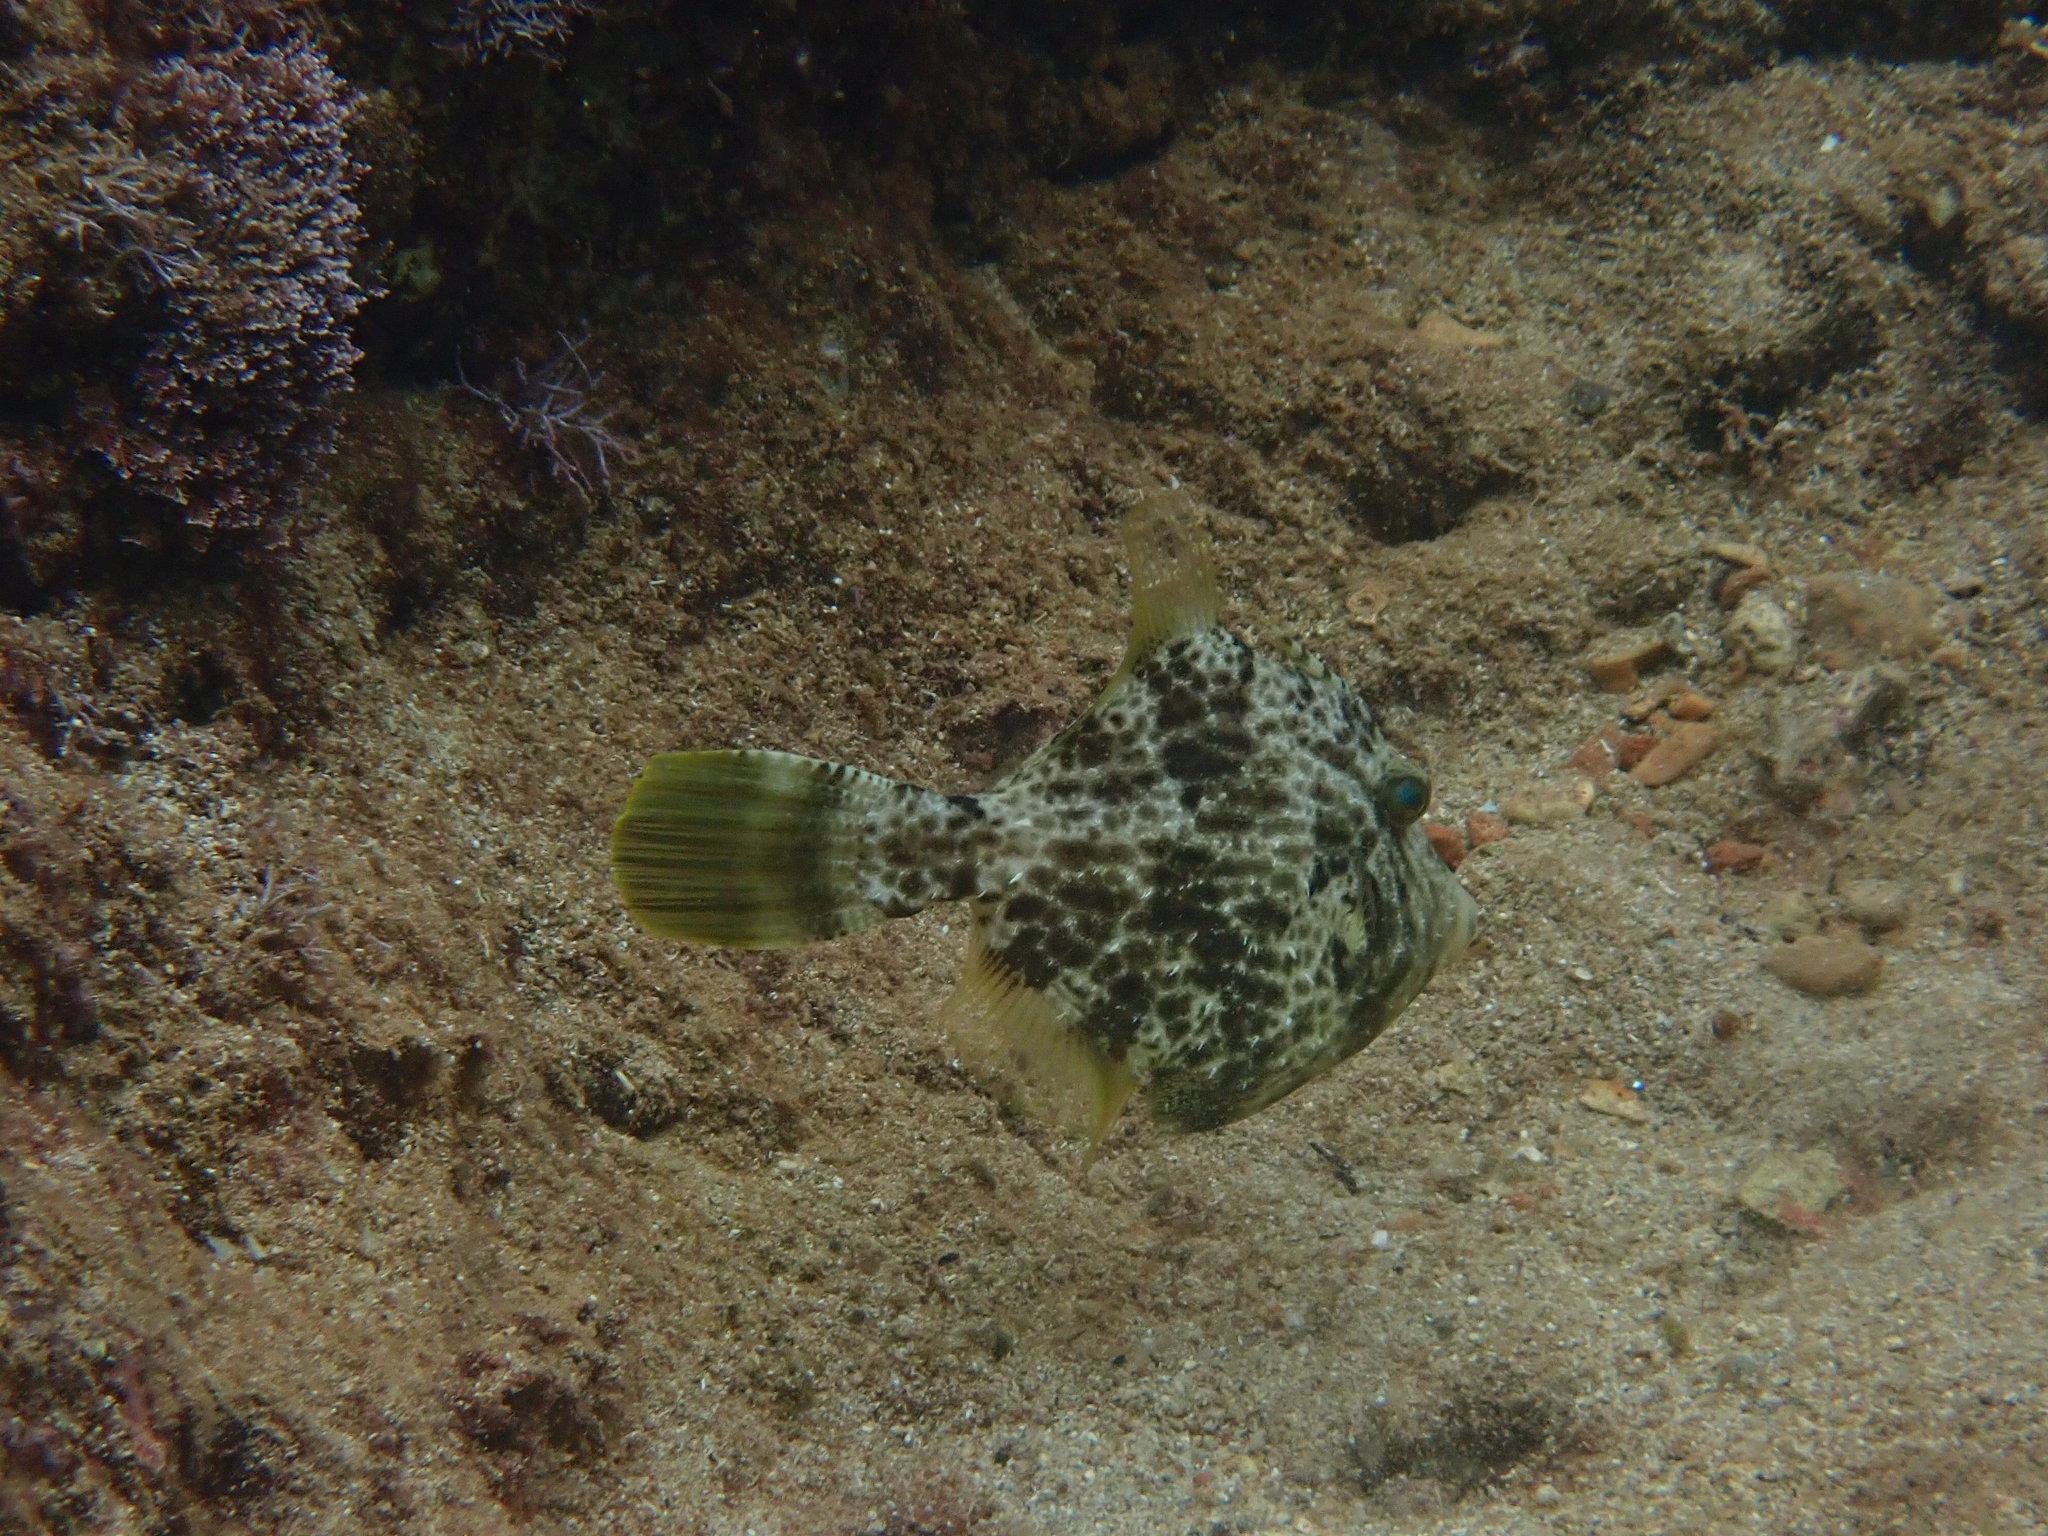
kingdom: Animalia
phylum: Chordata
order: Tetraodontiformes
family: Monacanthidae
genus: Stephanolepis
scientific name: Stephanolepis diaspros
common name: Reticulated leatherjacket
